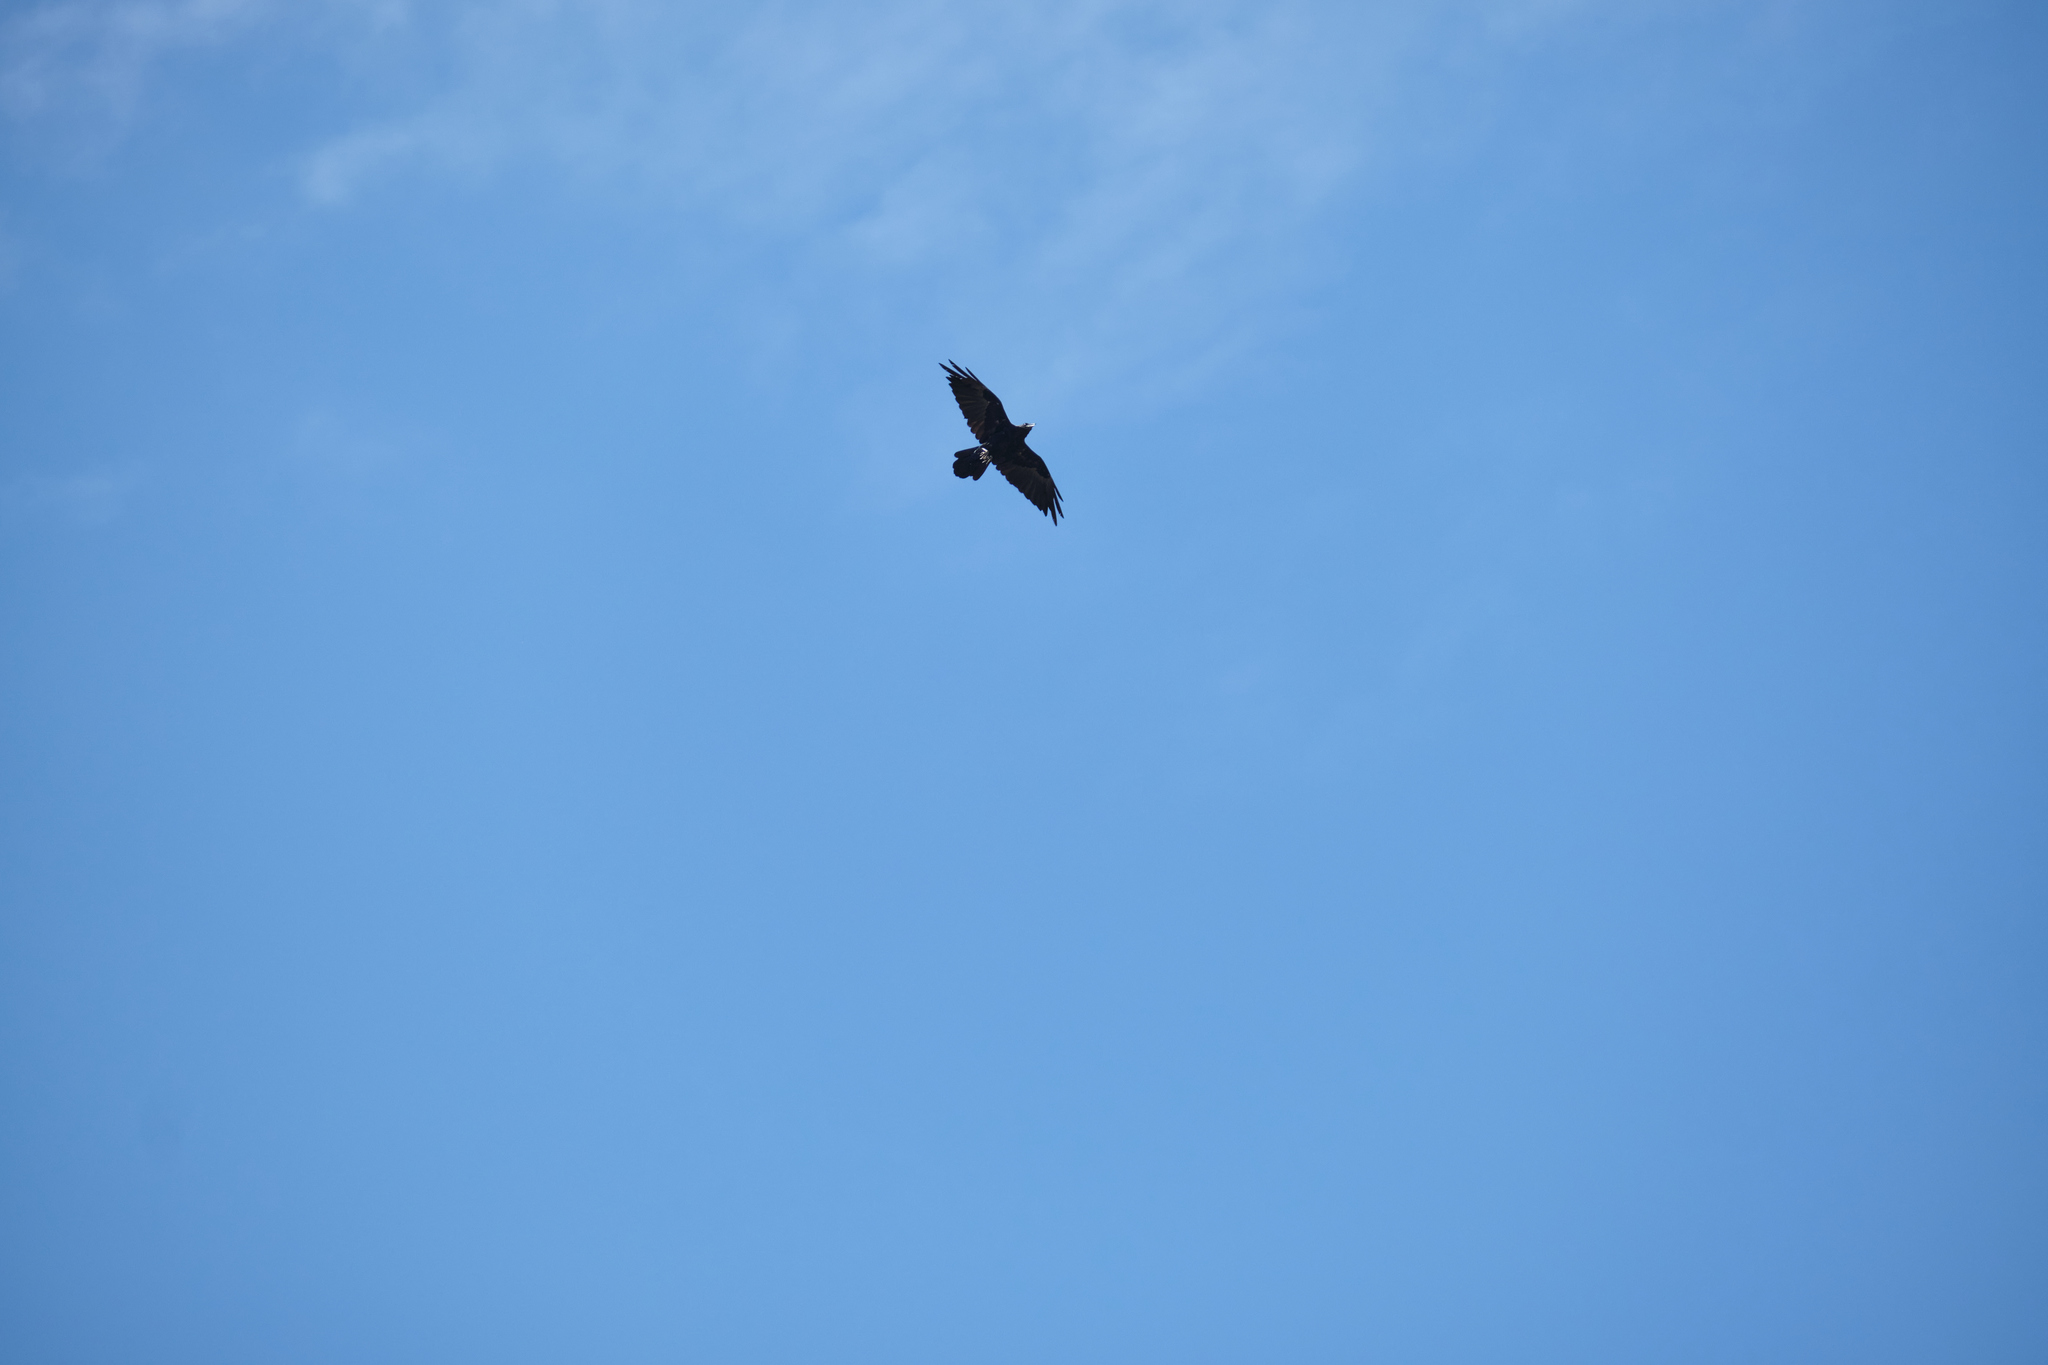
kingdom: Animalia
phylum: Chordata
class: Aves
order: Passeriformes
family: Corvidae
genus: Corvus
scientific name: Corvus corax
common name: Common raven
